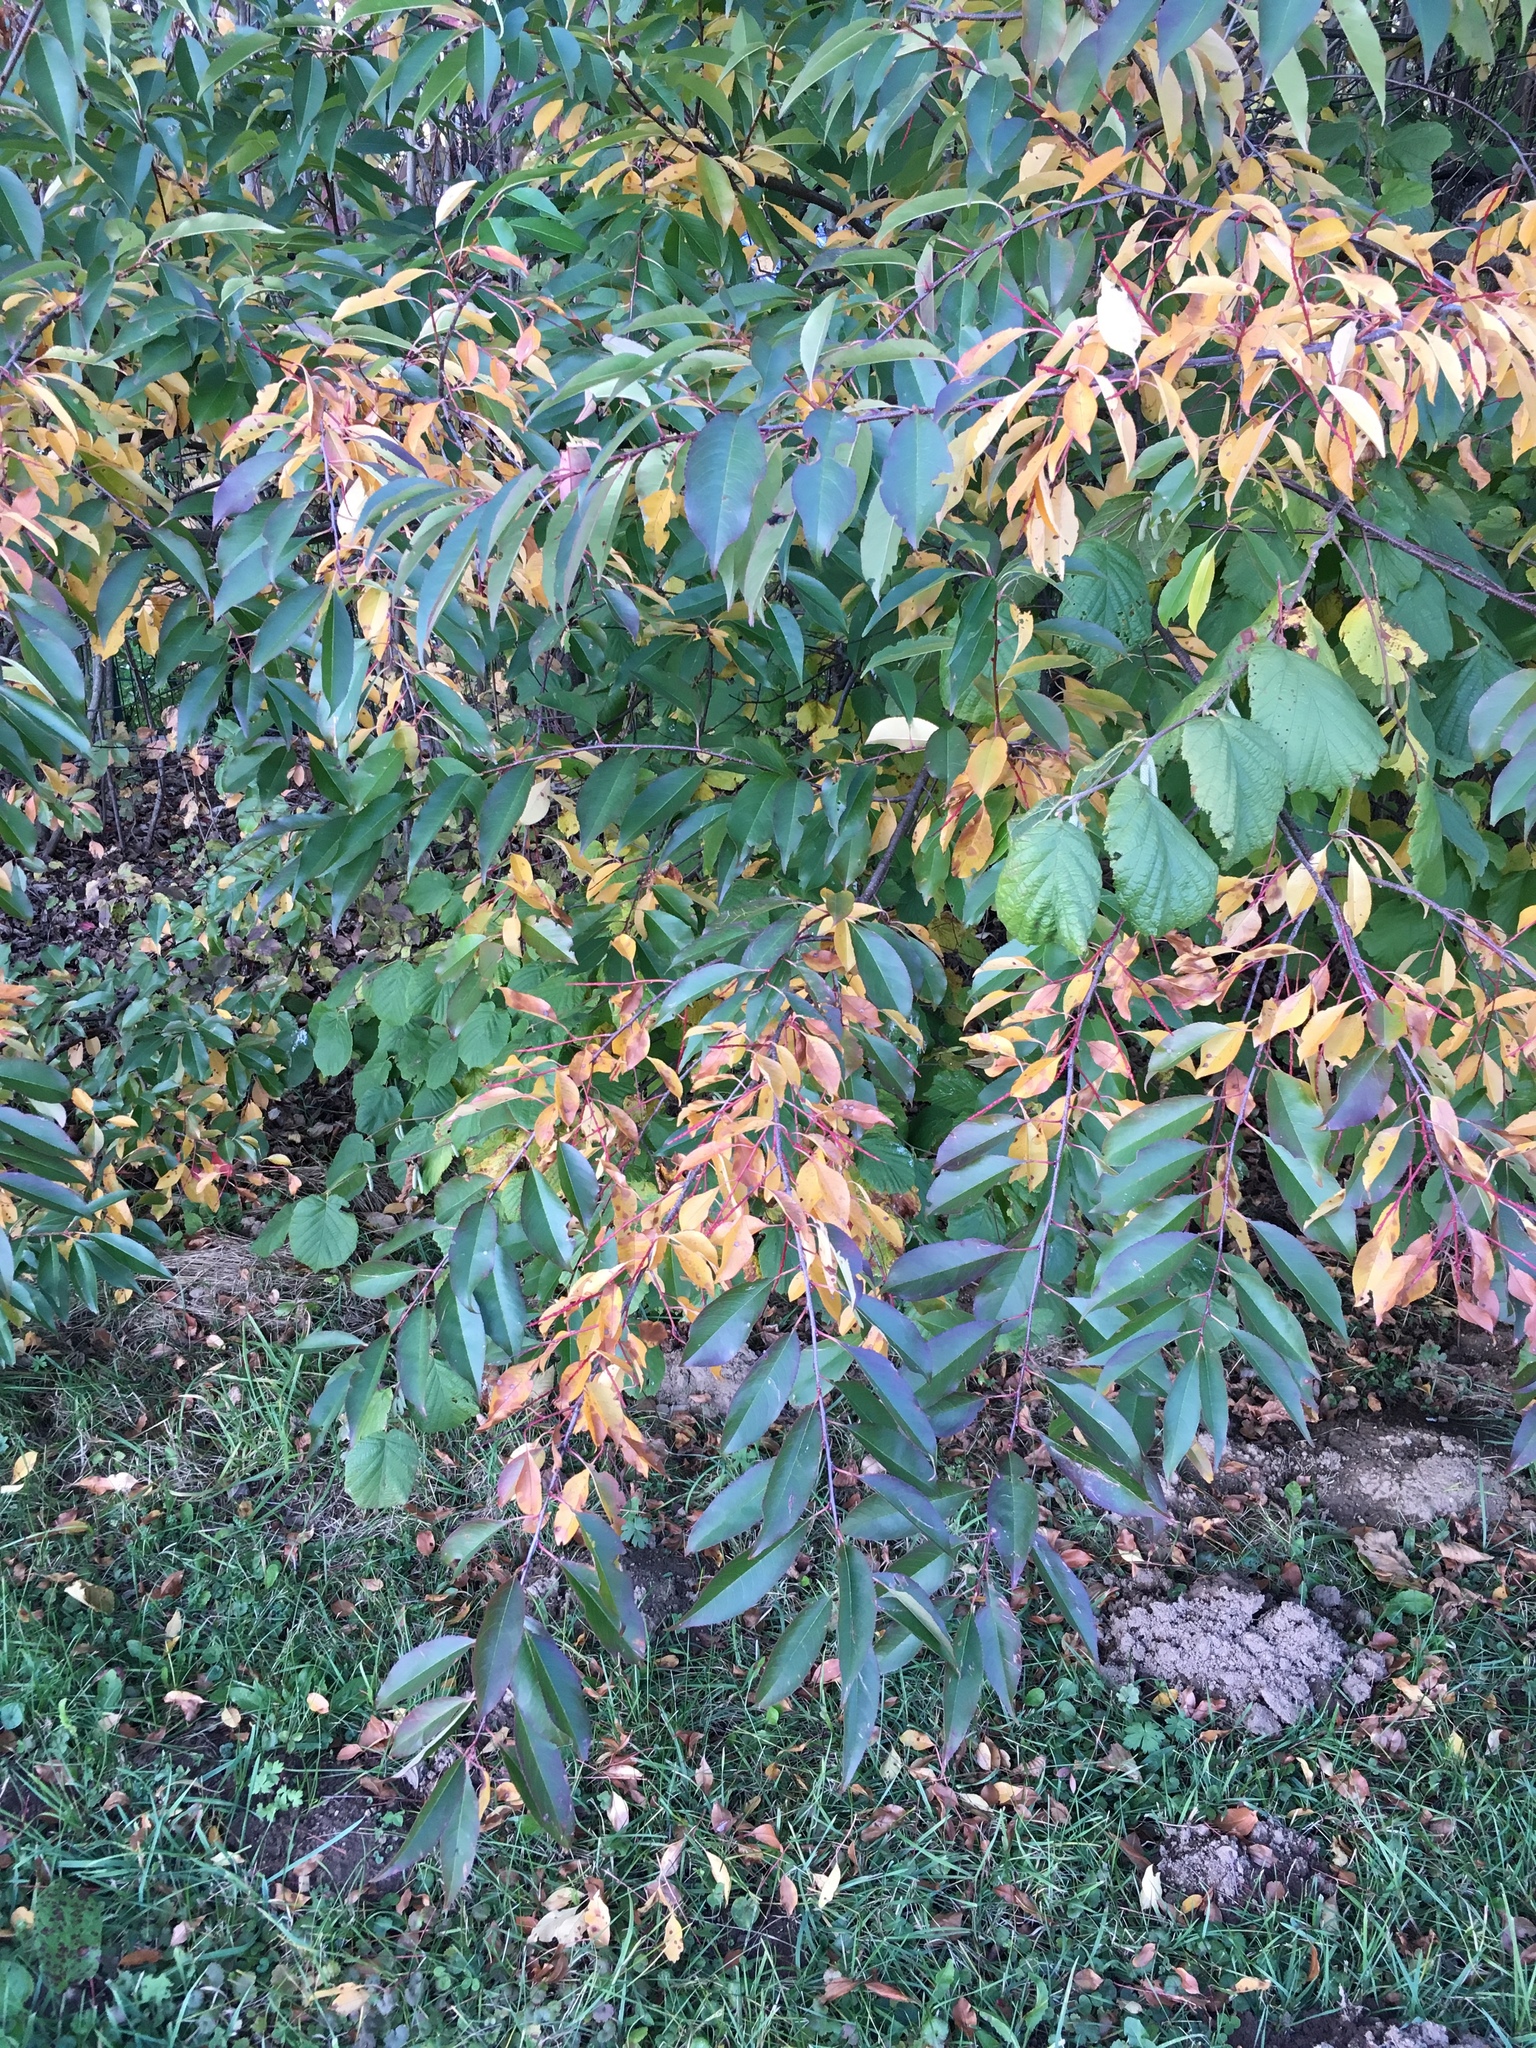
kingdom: Plantae
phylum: Tracheophyta
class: Magnoliopsida
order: Rosales
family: Rosaceae
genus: Prunus
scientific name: Prunus serotina
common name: Black cherry
